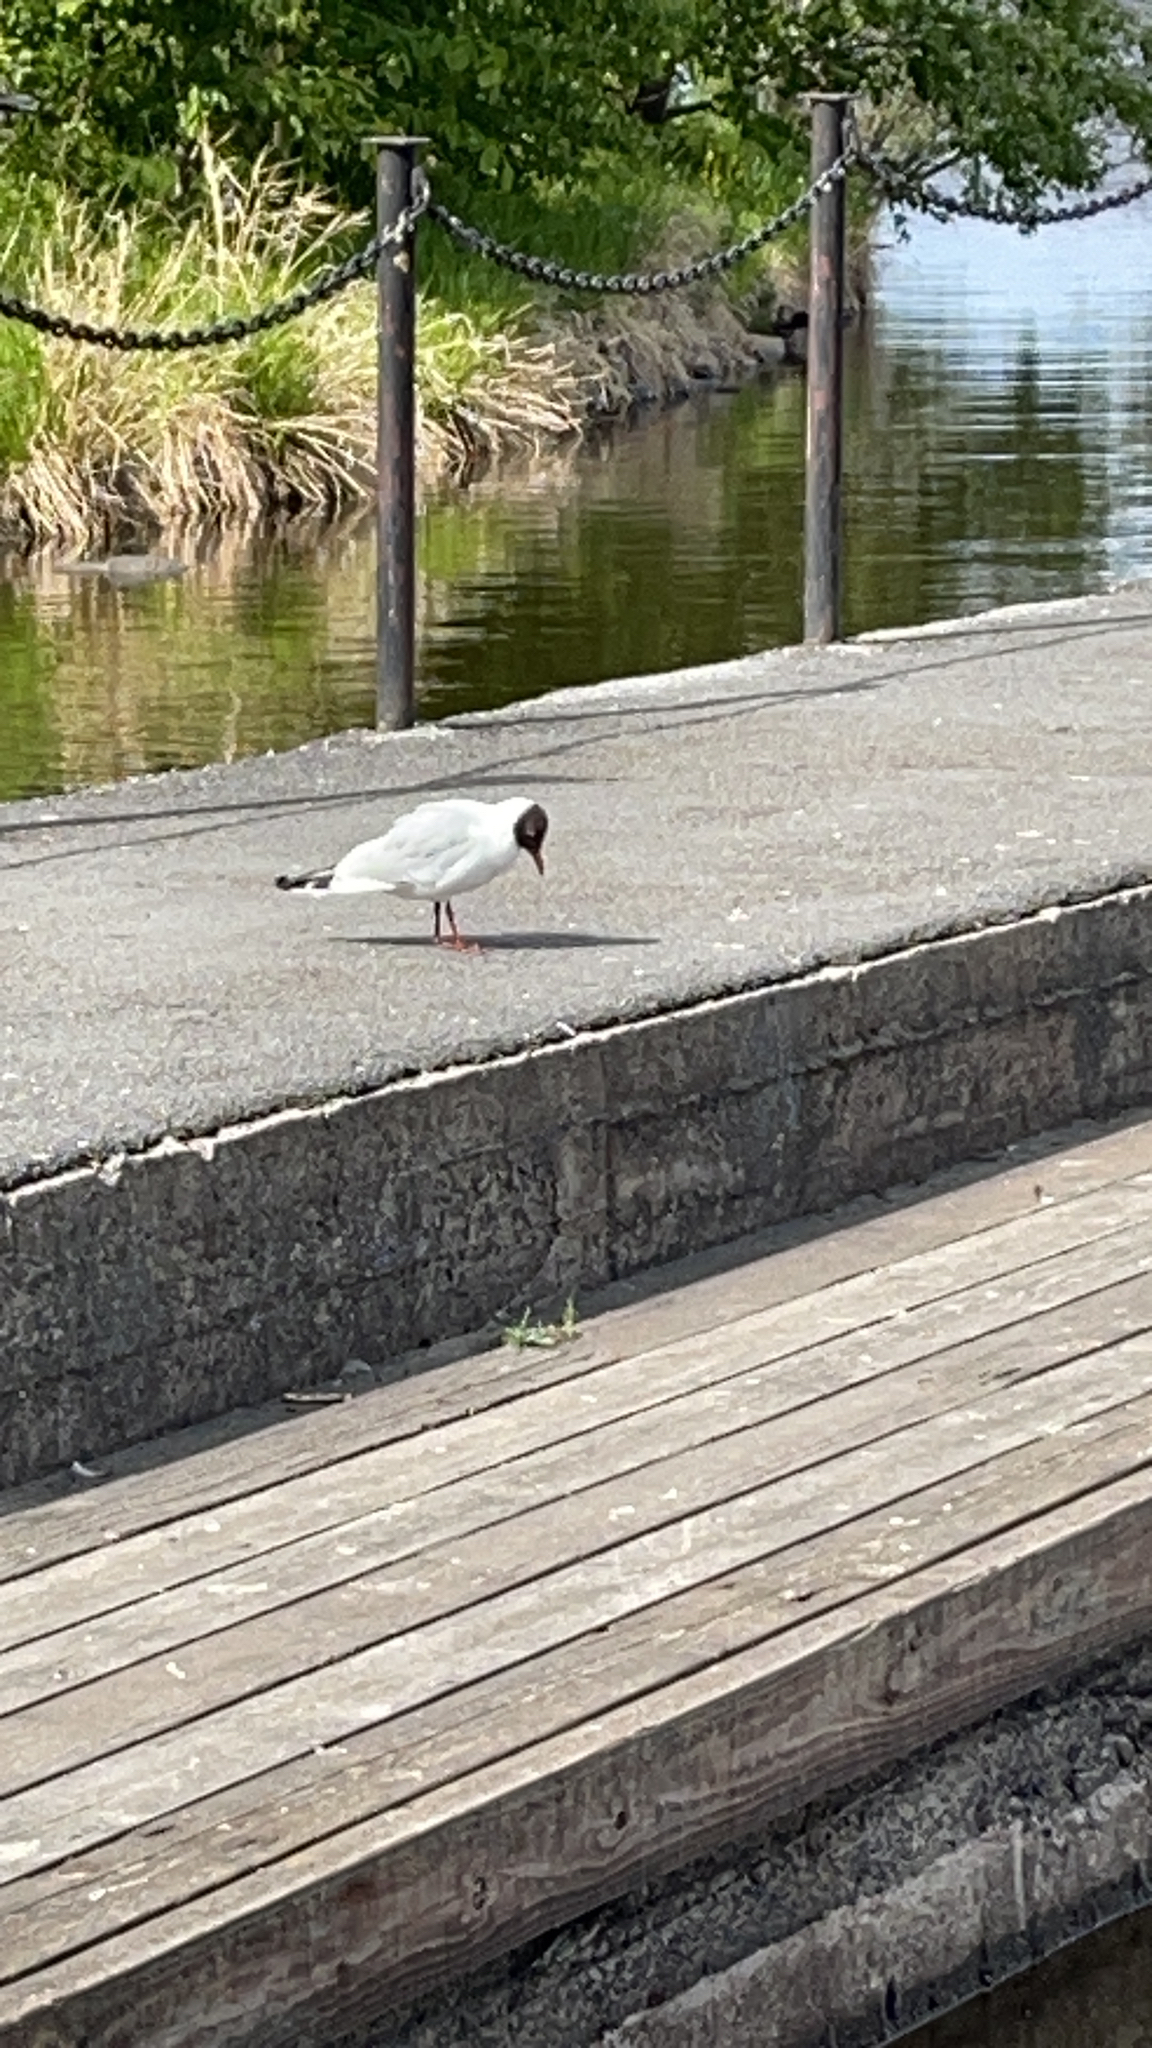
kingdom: Animalia
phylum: Chordata
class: Aves
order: Charadriiformes
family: Laridae
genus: Chroicocephalus
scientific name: Chroicocephalus ridibundus
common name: Black-headed gull
